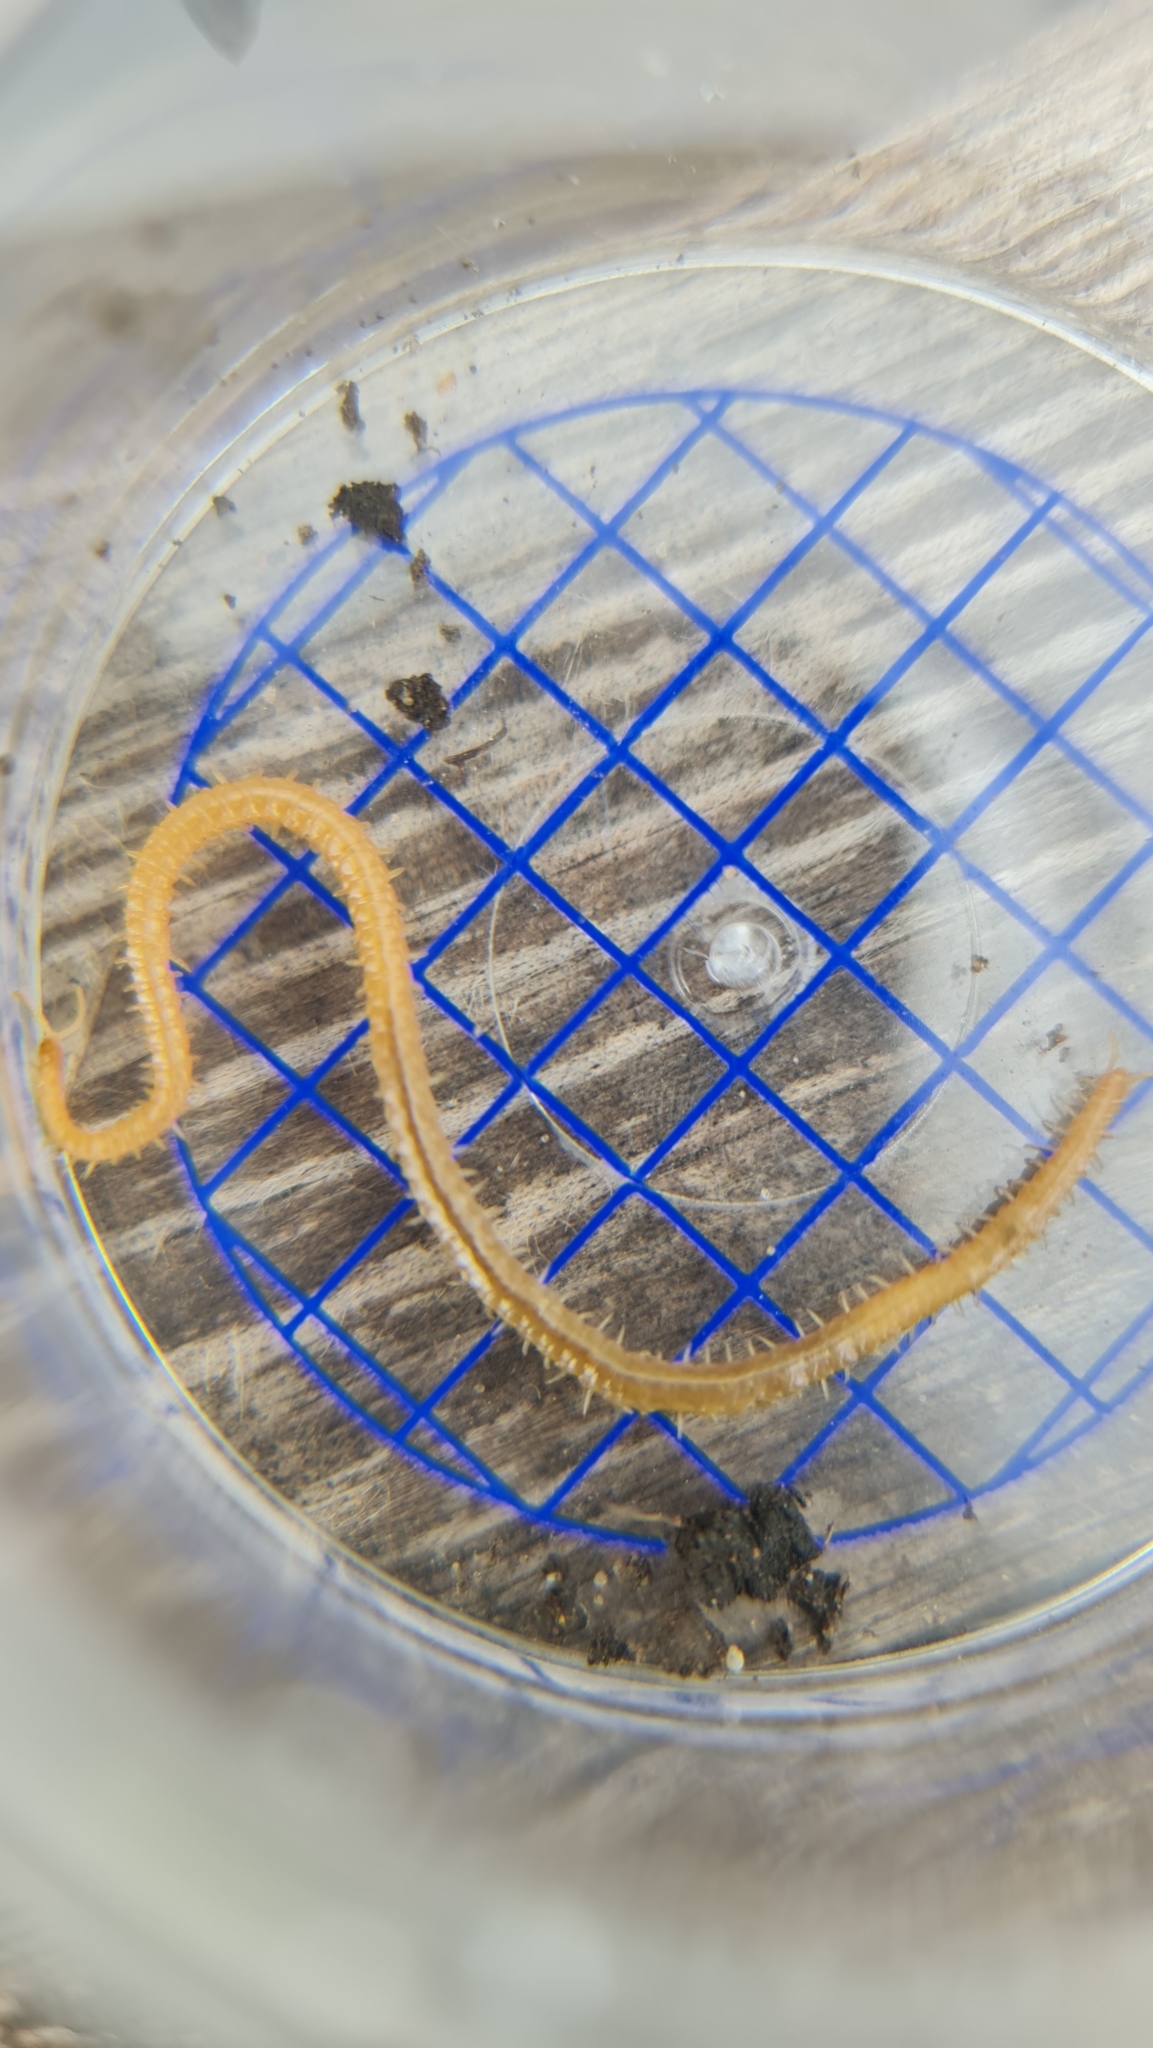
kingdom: Animalia
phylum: Arthropoda
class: Chilopoda
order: Geophilomorpha
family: Himantariidae
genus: Stigmatogaster
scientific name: Stigmatogaster subterranea
